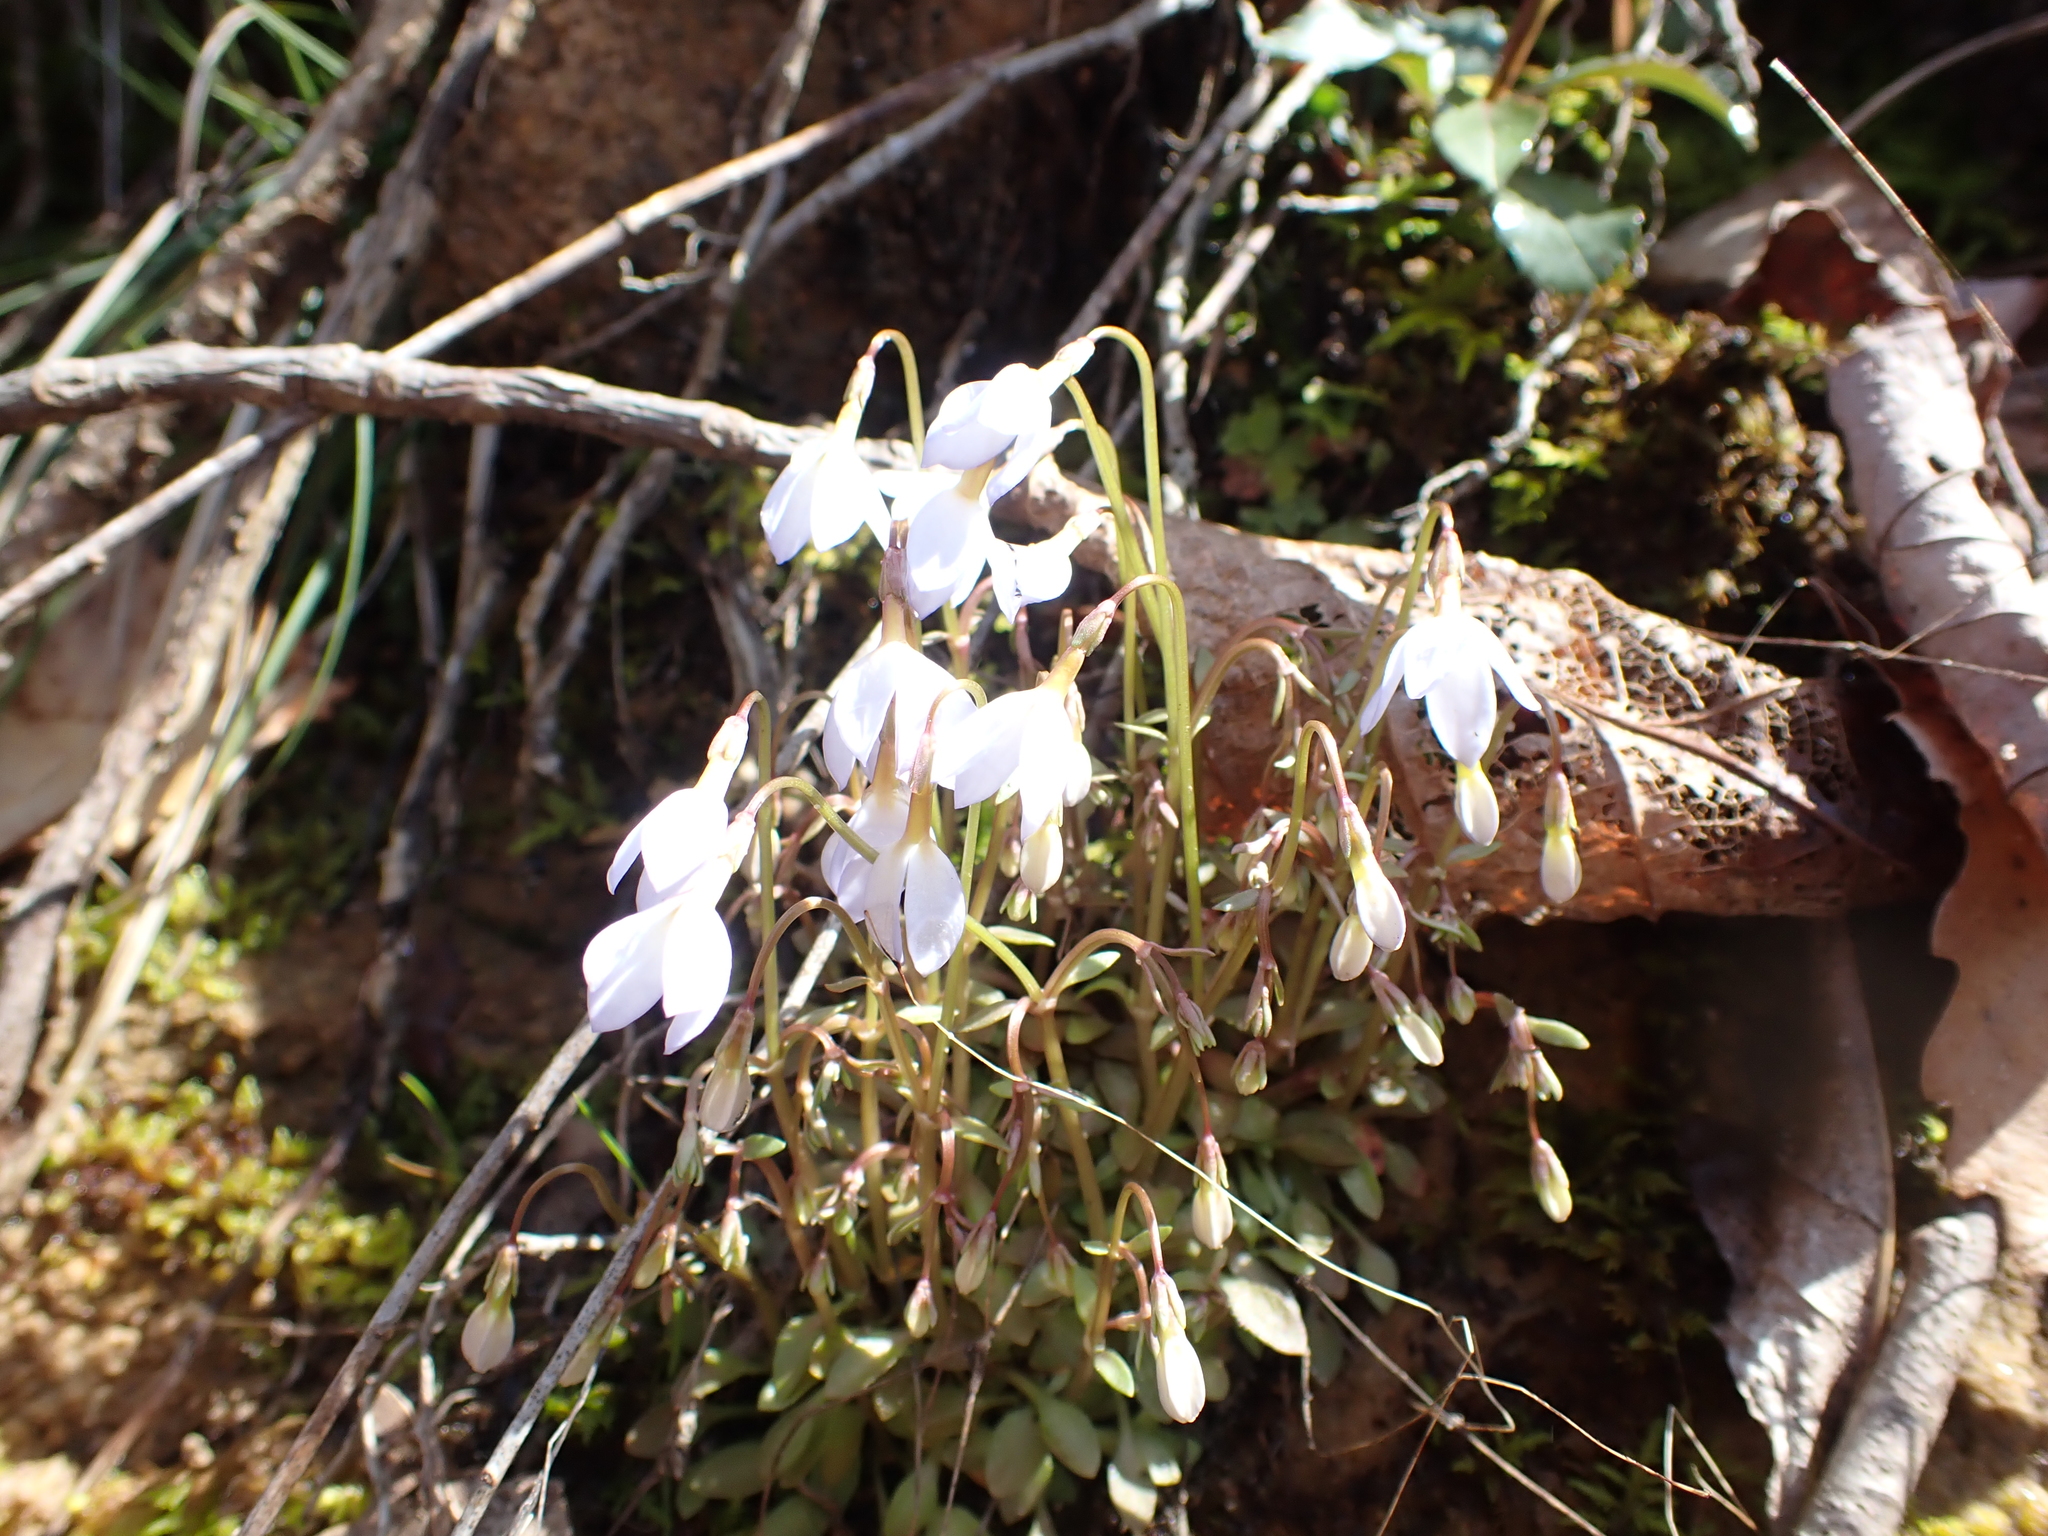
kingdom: Plantae
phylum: Tracheophyta
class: Magnoliopsida
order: Gentianales
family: Rubiaceae
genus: Houstonia
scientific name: Houstonia caerulea
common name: Bluets
